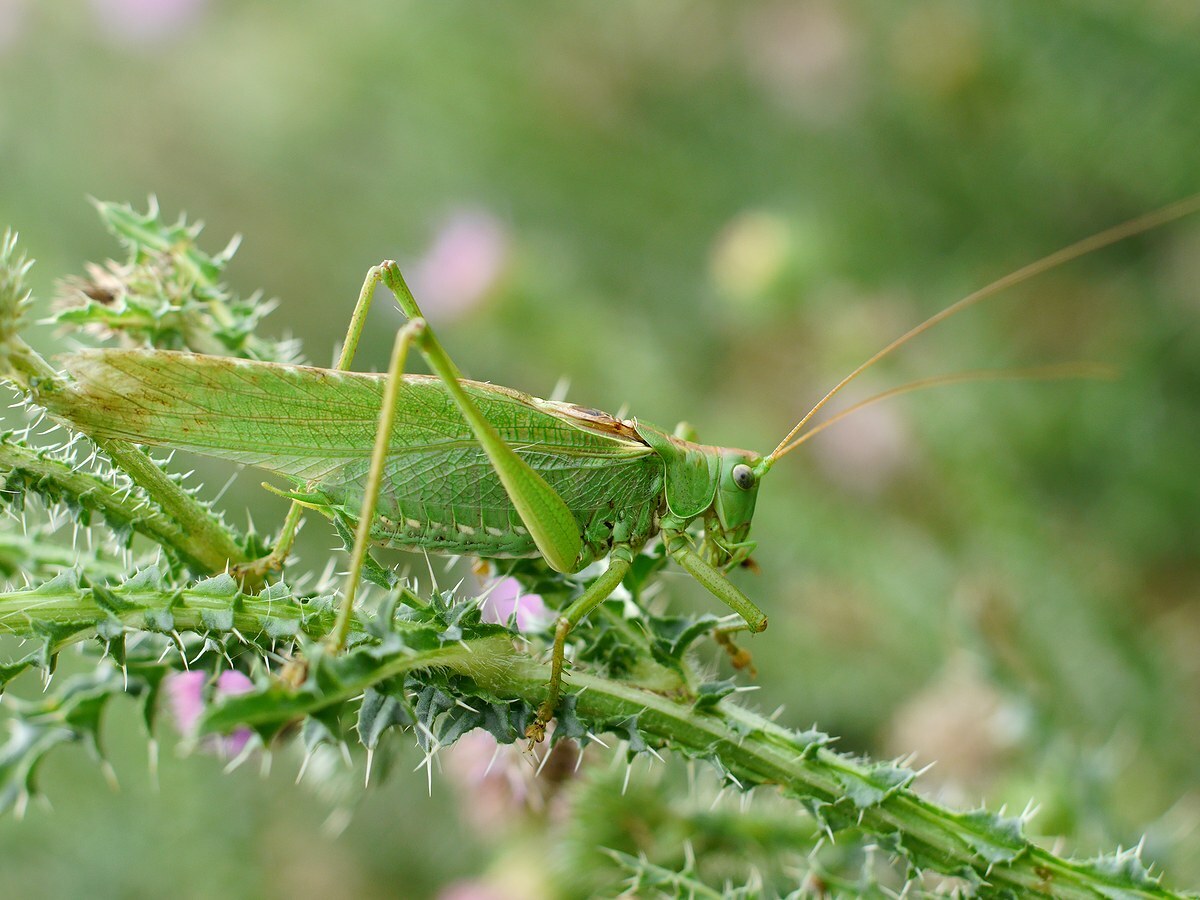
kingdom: Animalia
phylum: Arthropoda
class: Insecta
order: Orthoptera
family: Tettigoniidae
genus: Tettigonia
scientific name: Tettigonia viridissima
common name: Great green bush-cricket
